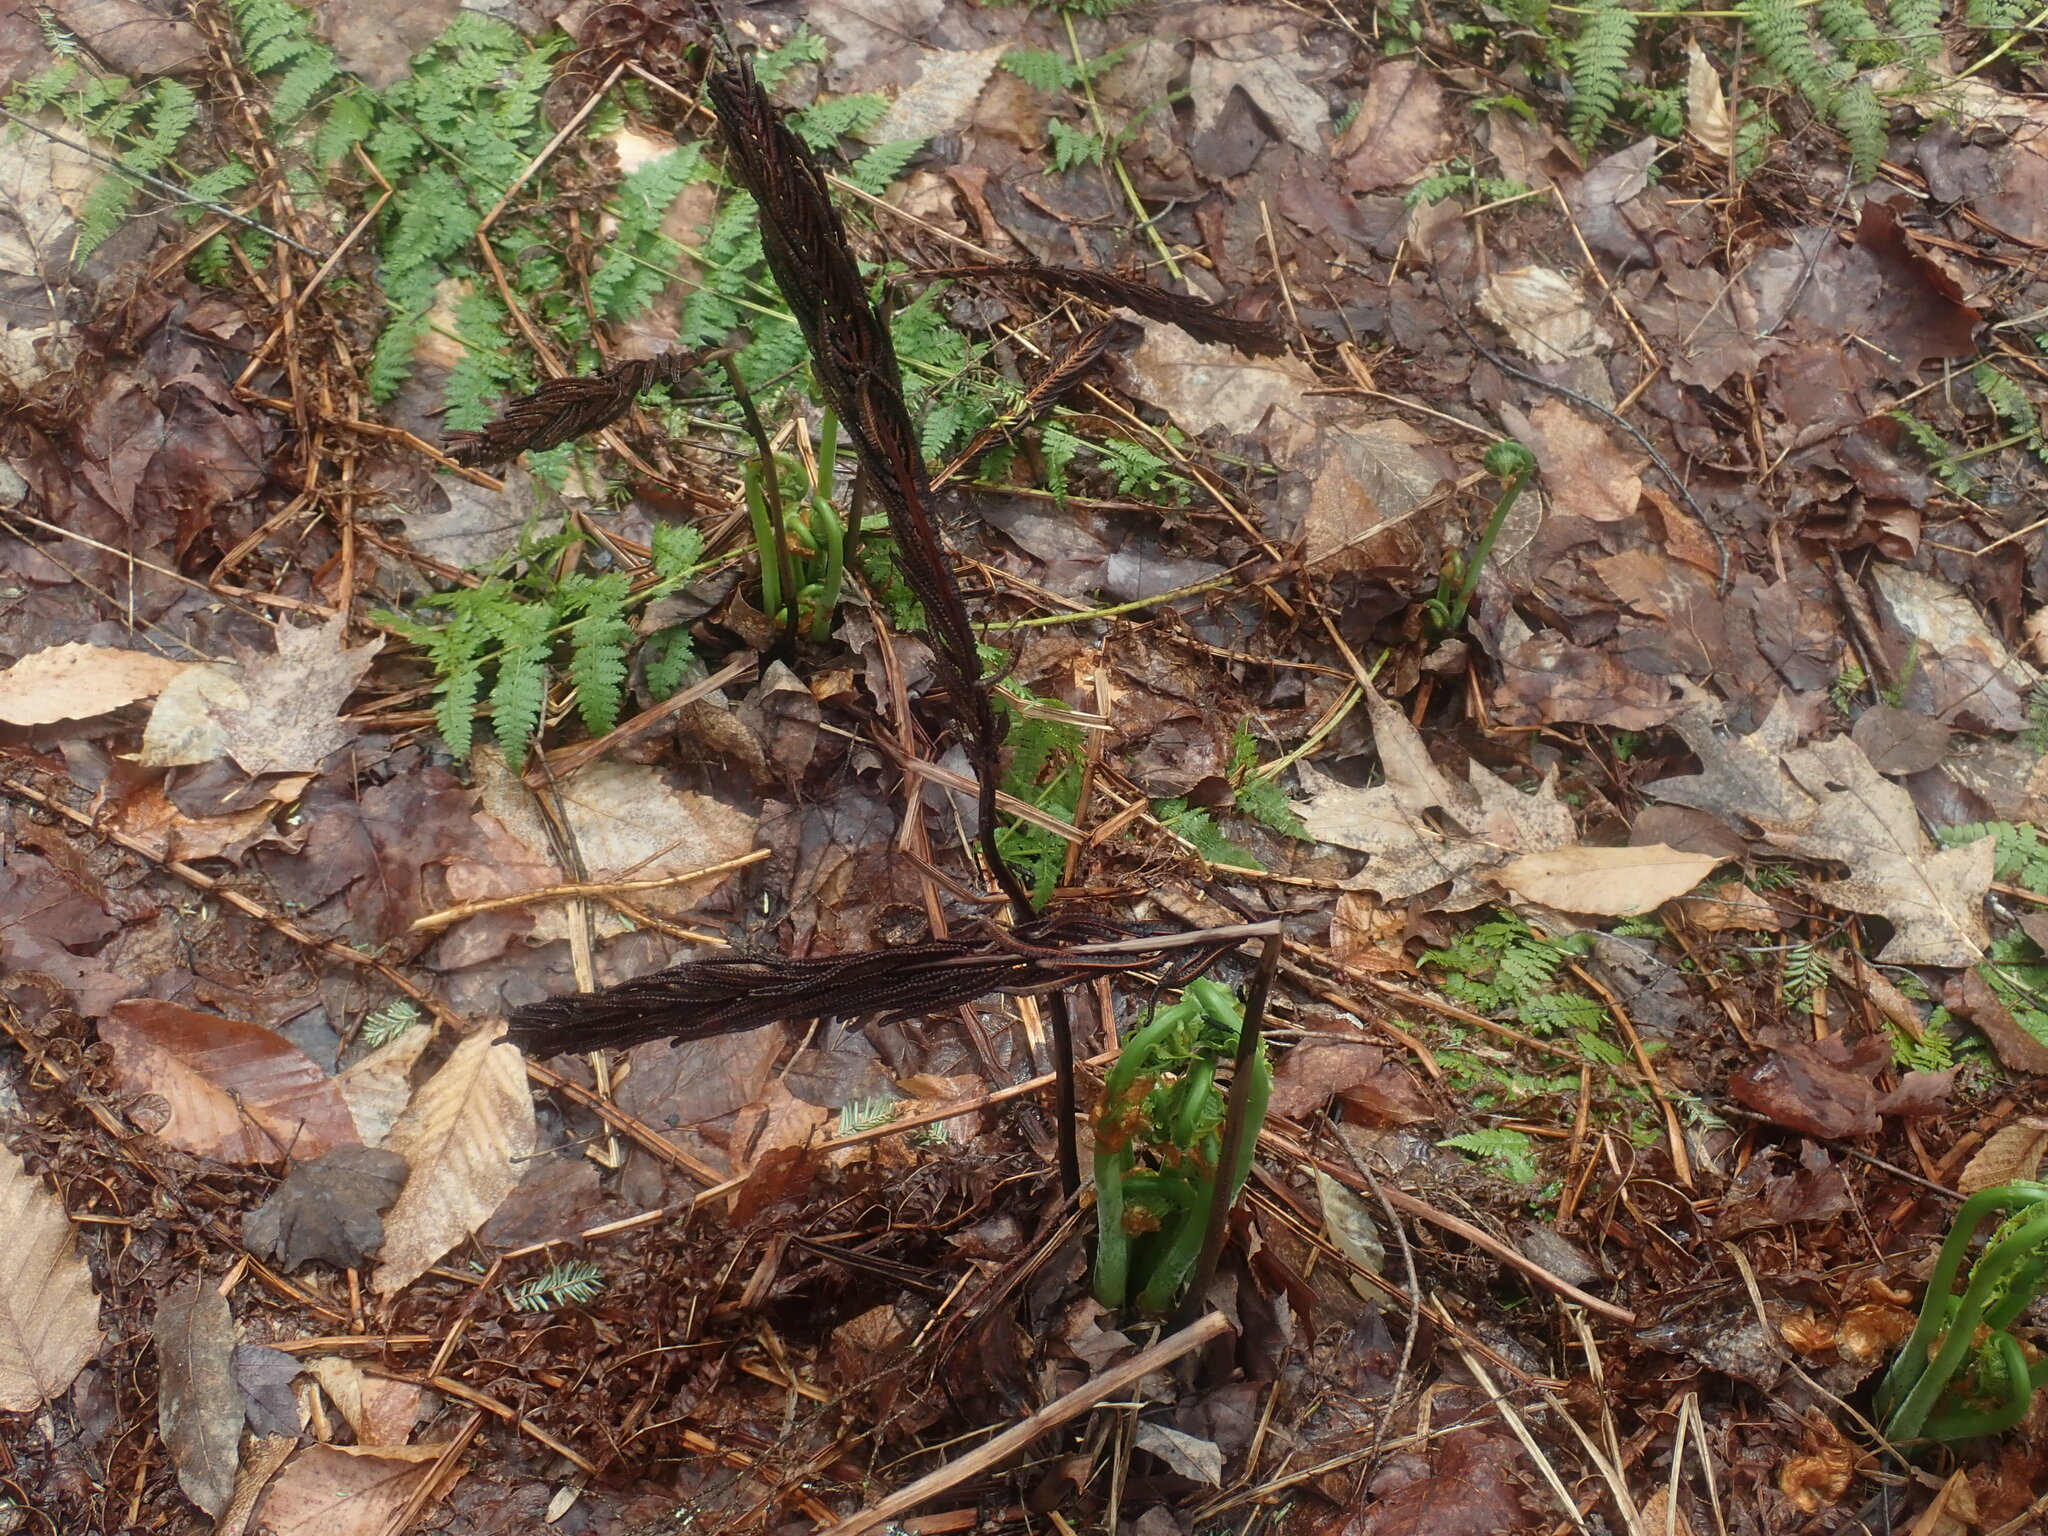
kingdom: Plantae
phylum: Tracheophyta
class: Polypodiopsida
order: Polypodiales
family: Onocleaceae
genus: Matteuccia
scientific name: Matteuccia struthiopteris
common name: Ostrich fern
